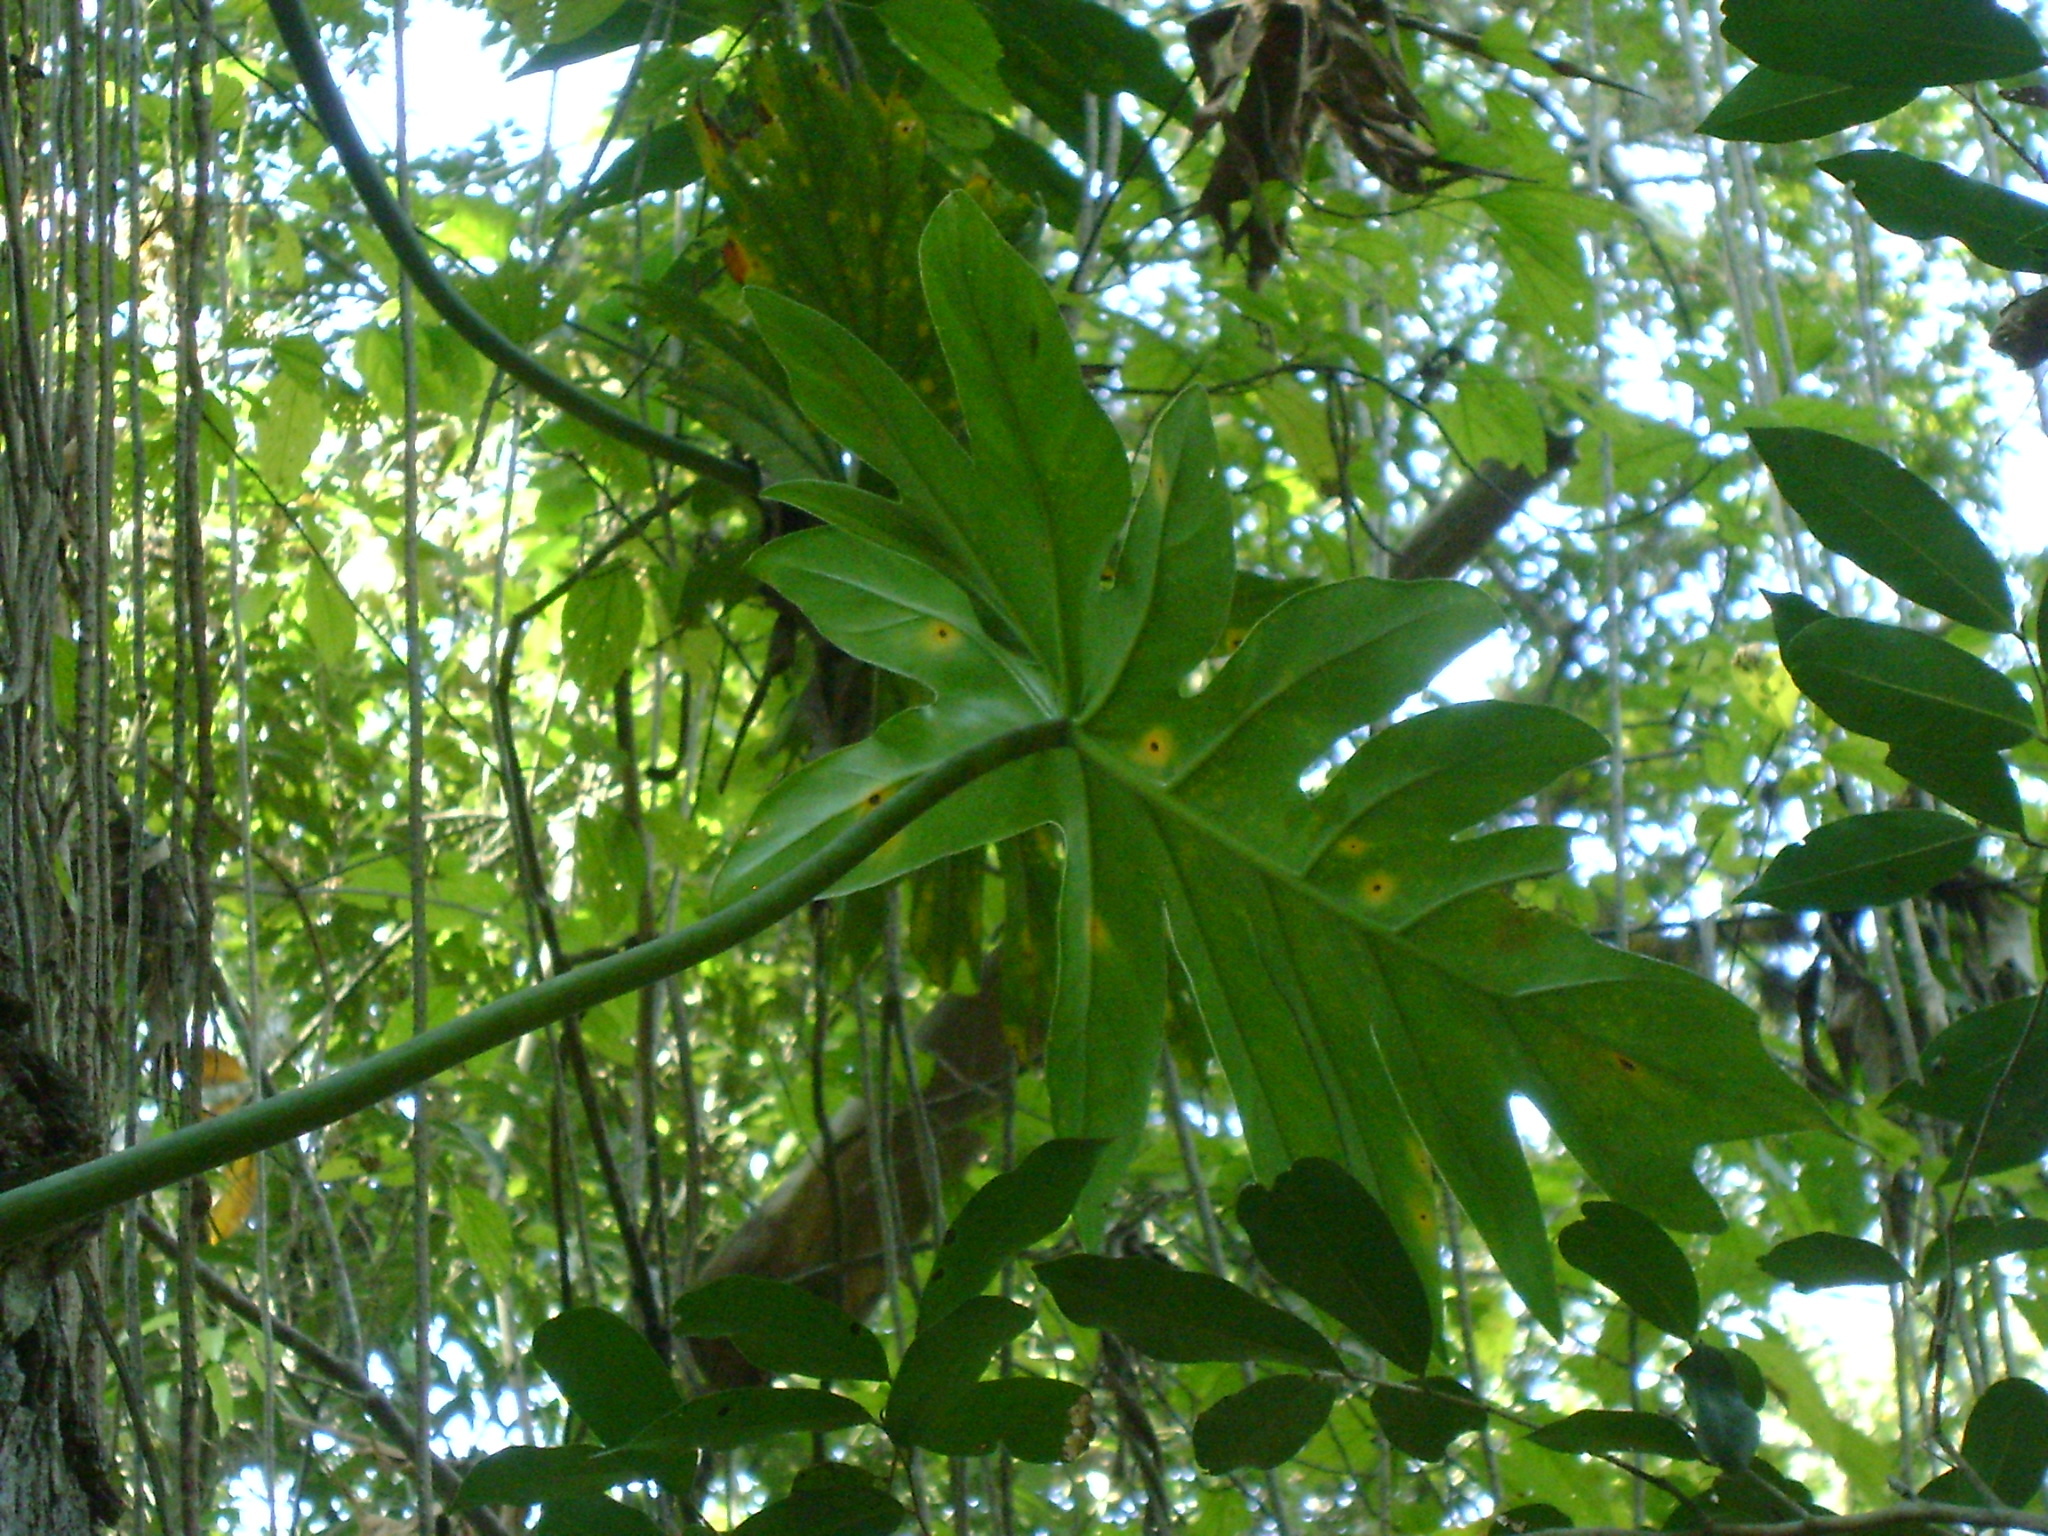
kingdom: Plantae
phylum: Tracheophyta
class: Liliopsida
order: Alismatales
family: Araceae
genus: Philodendron
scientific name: Philodendron radiatum
